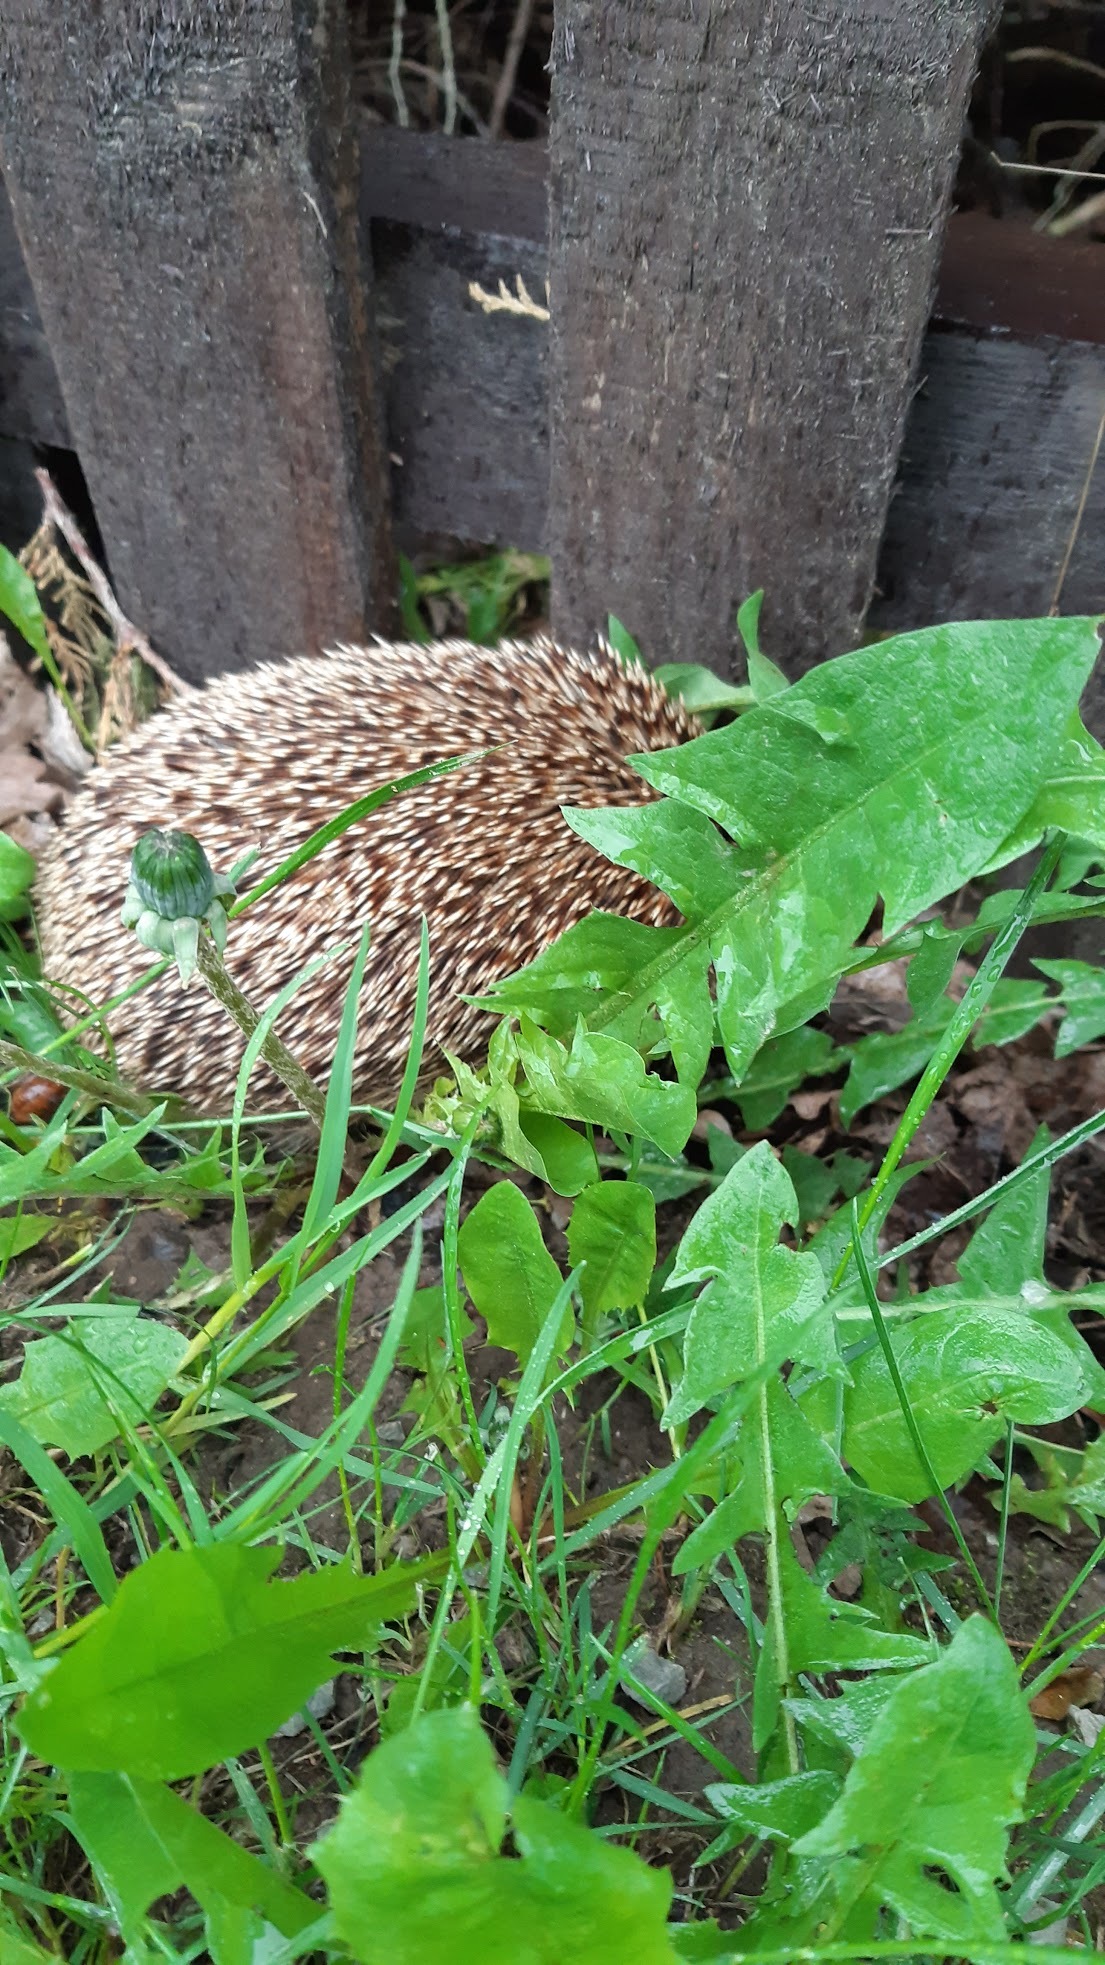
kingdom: Animalia
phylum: Chordata
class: Mammalia
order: Erinaceomorpha
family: Erinaceidae
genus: Erinaceus
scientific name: Erinaceus europaeus
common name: West european hedgehog
